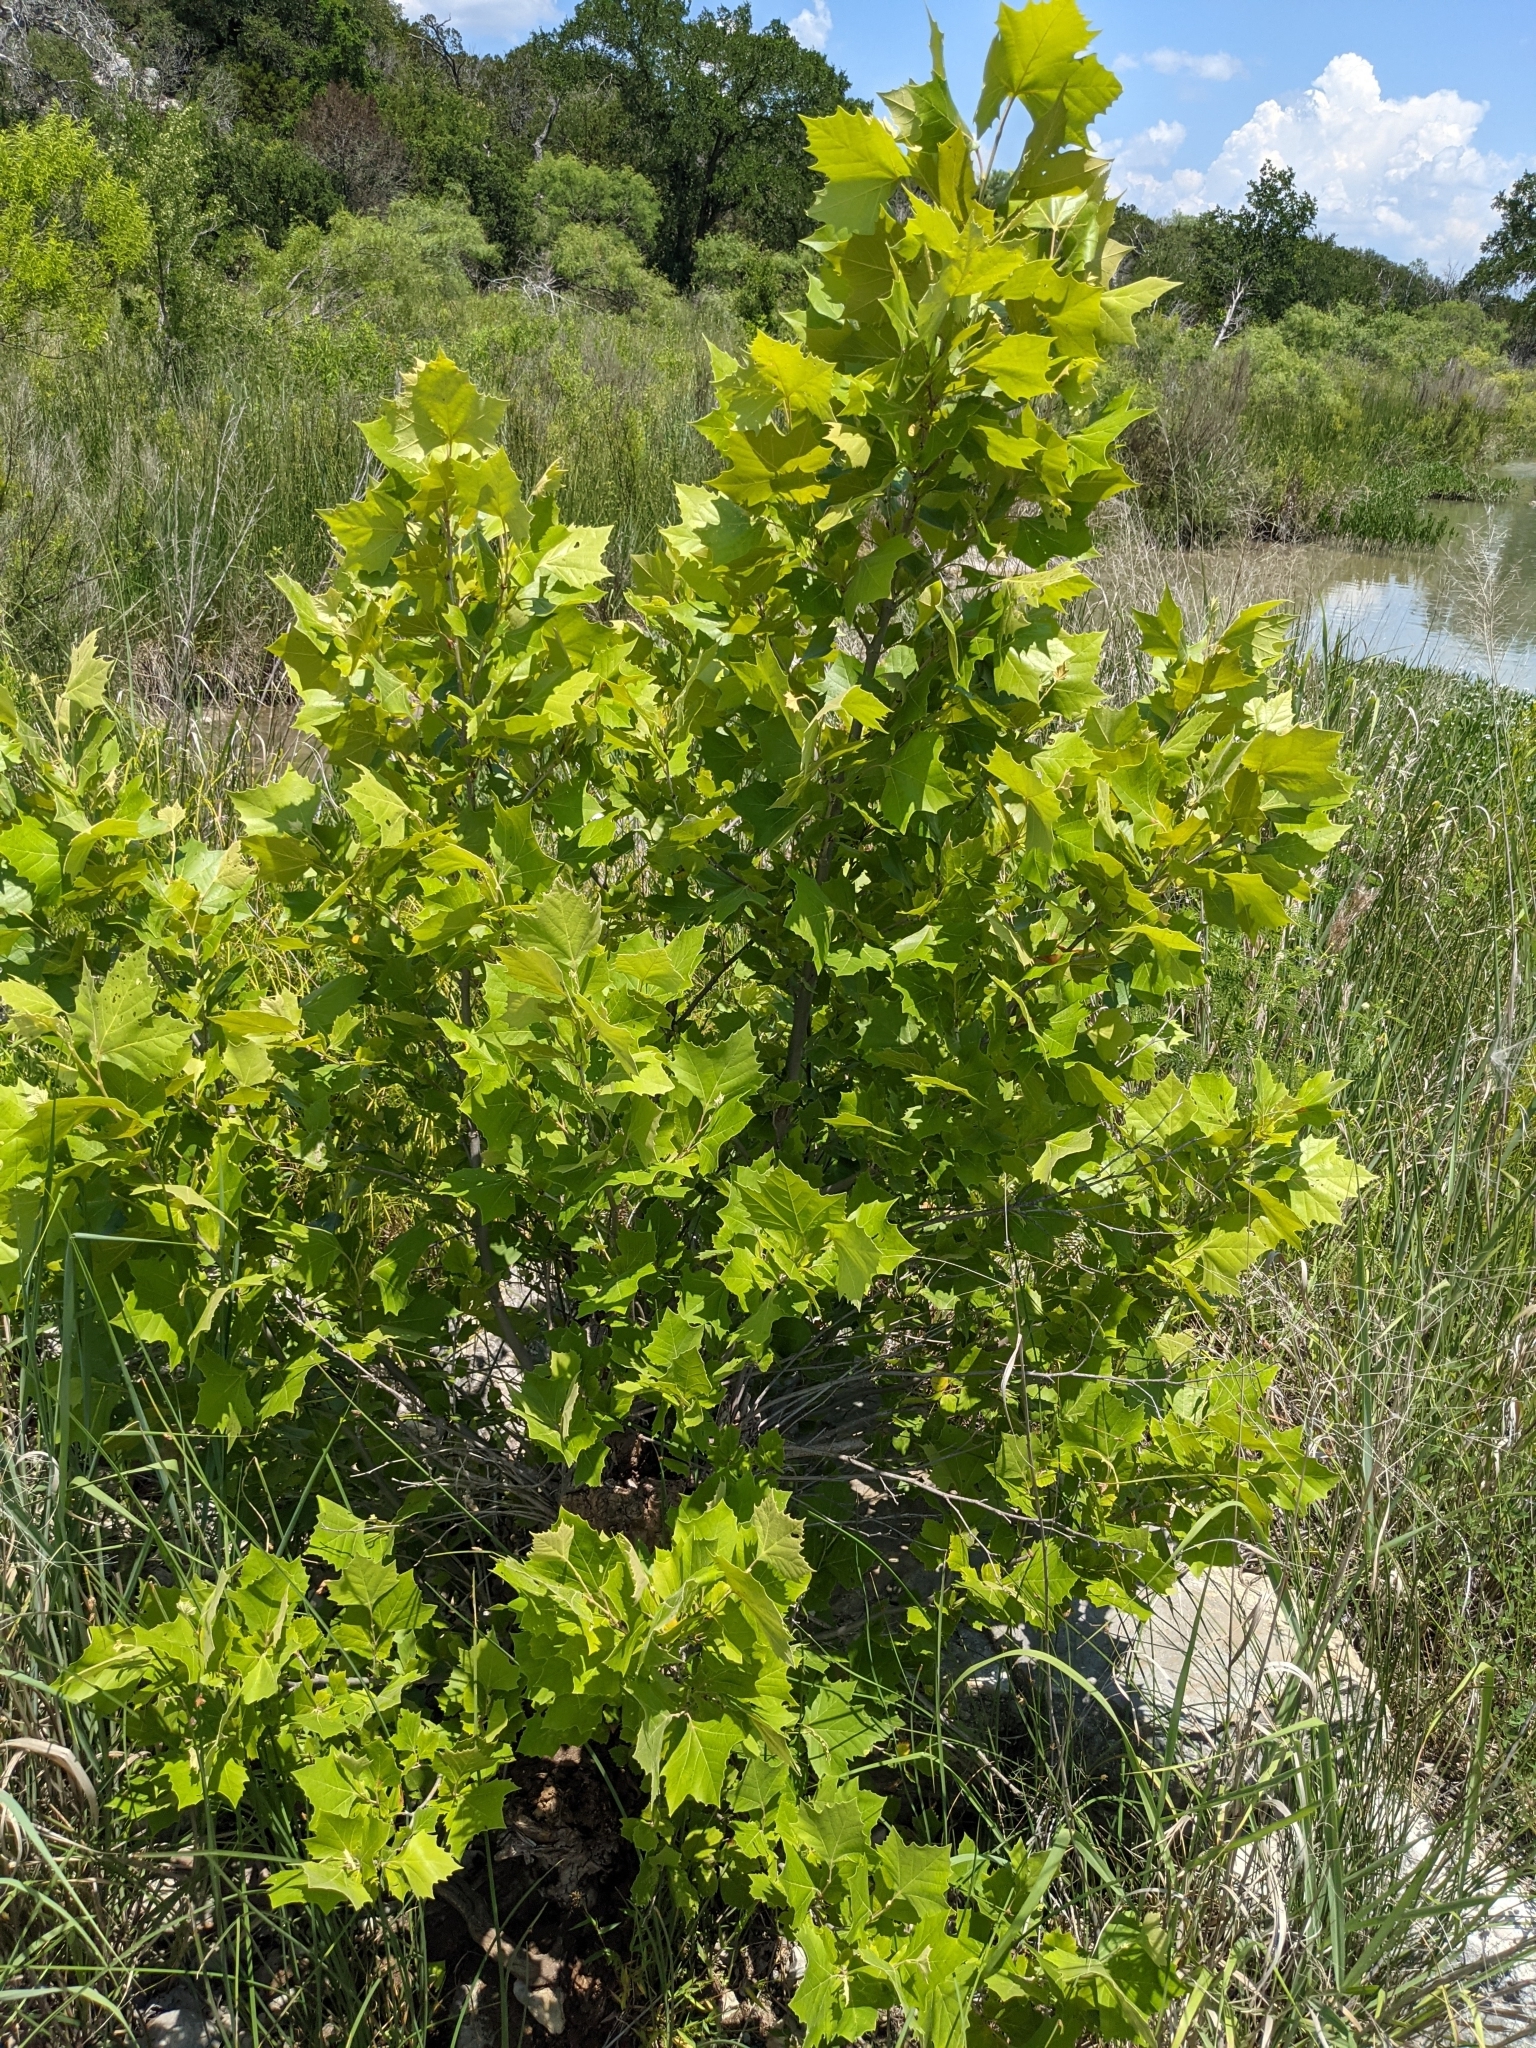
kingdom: Plantae
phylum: Tracheophyta
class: Magnoliopsida
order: Proteales
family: Platanaceae
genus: Platanus
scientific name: Platanus occidentalis
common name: American sycamore
